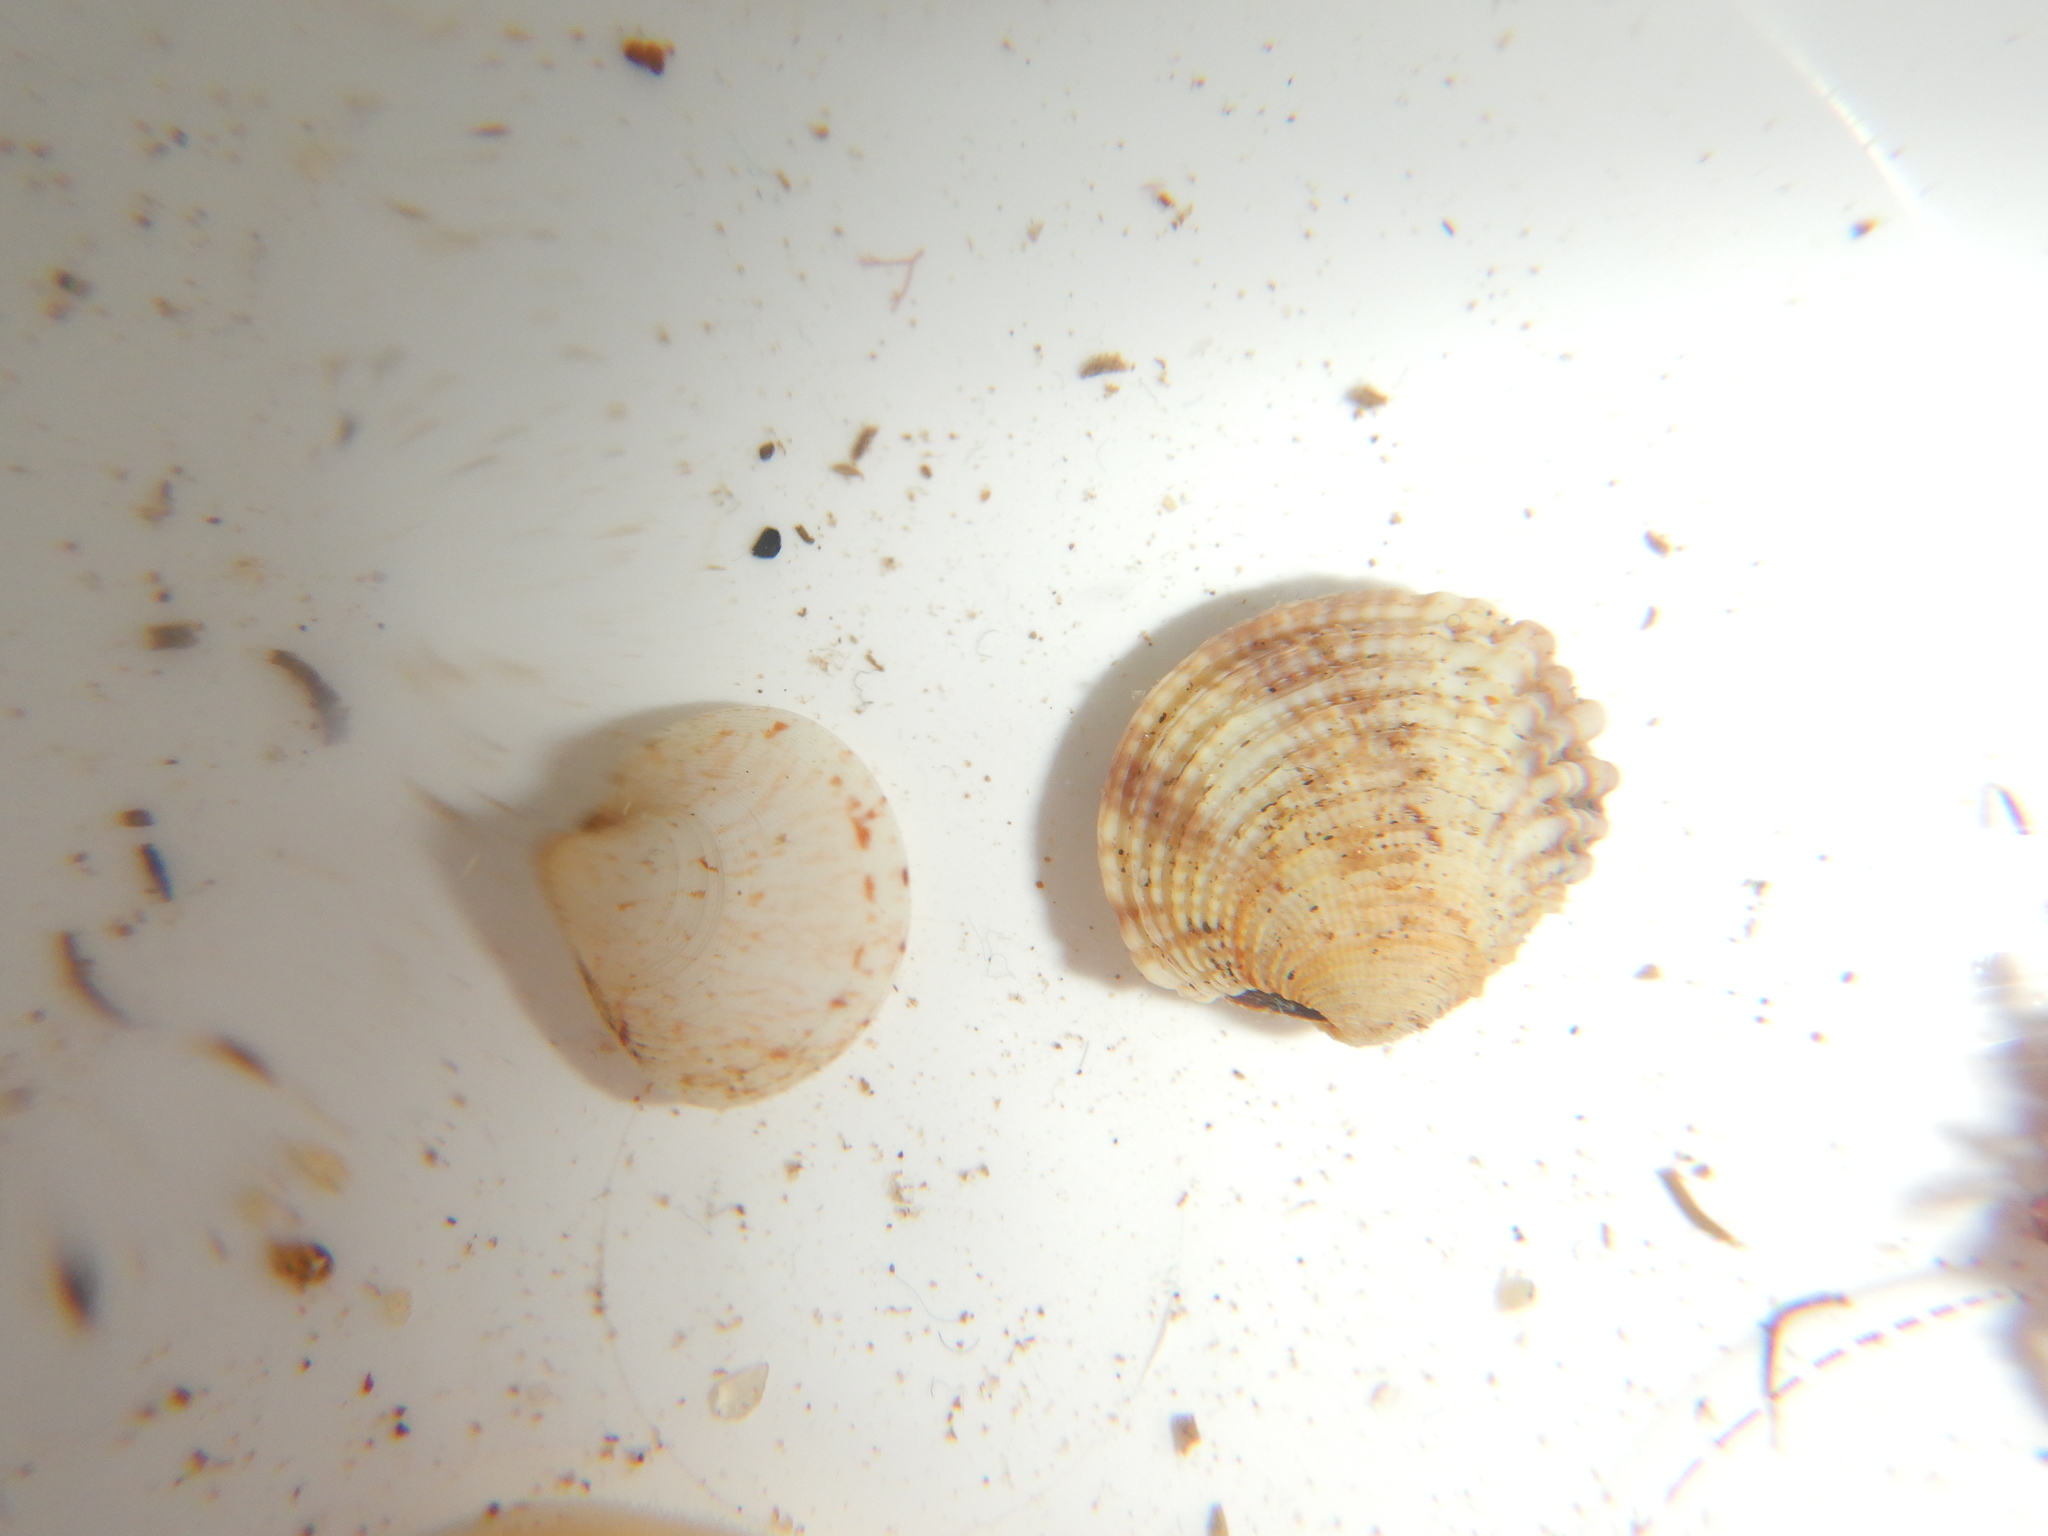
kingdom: Animalia
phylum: Mollusca
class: Bivalvia
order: Venerida
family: Veneridae
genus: Venus
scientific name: Venus verrucosa
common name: Warty venus
